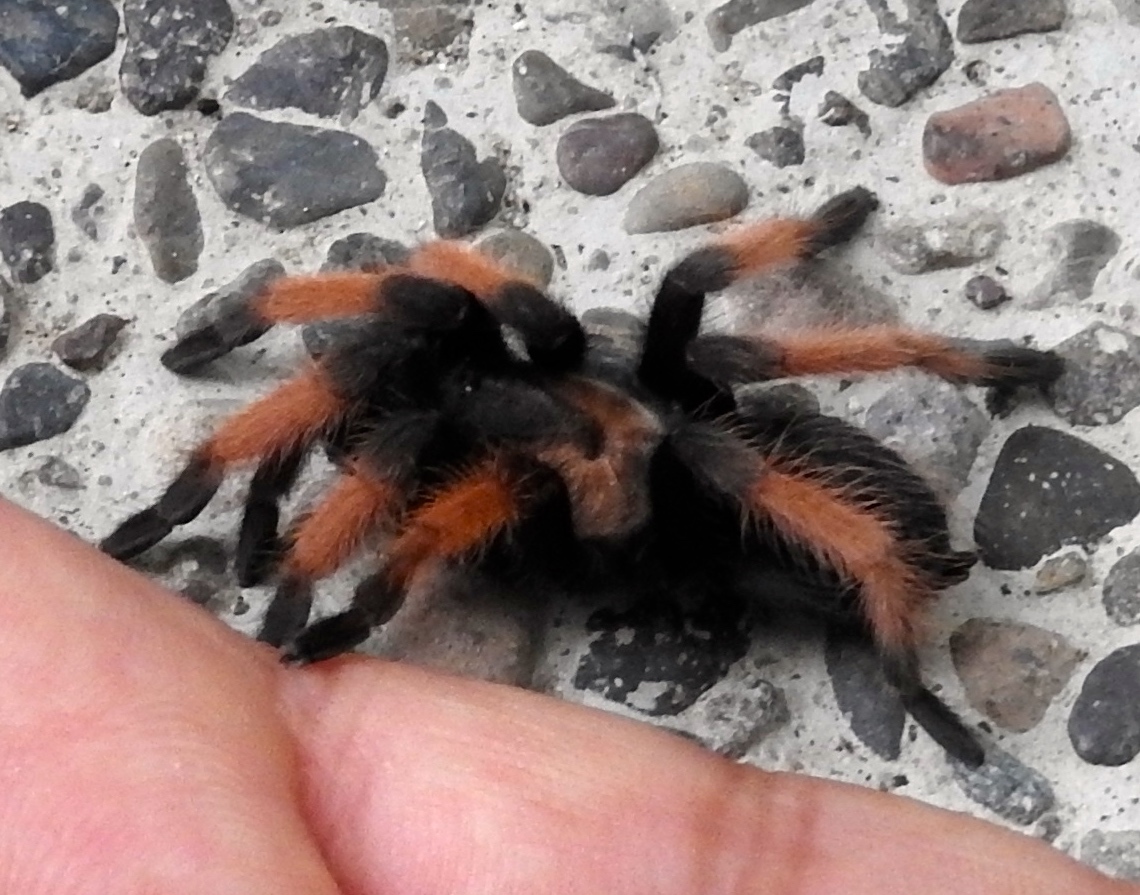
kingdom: Animalia
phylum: Arthropoda
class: Arachnida
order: Araneae
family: Theraphosidae
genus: Brachypelma
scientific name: Brachypelma emilia
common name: Mexican redleg
